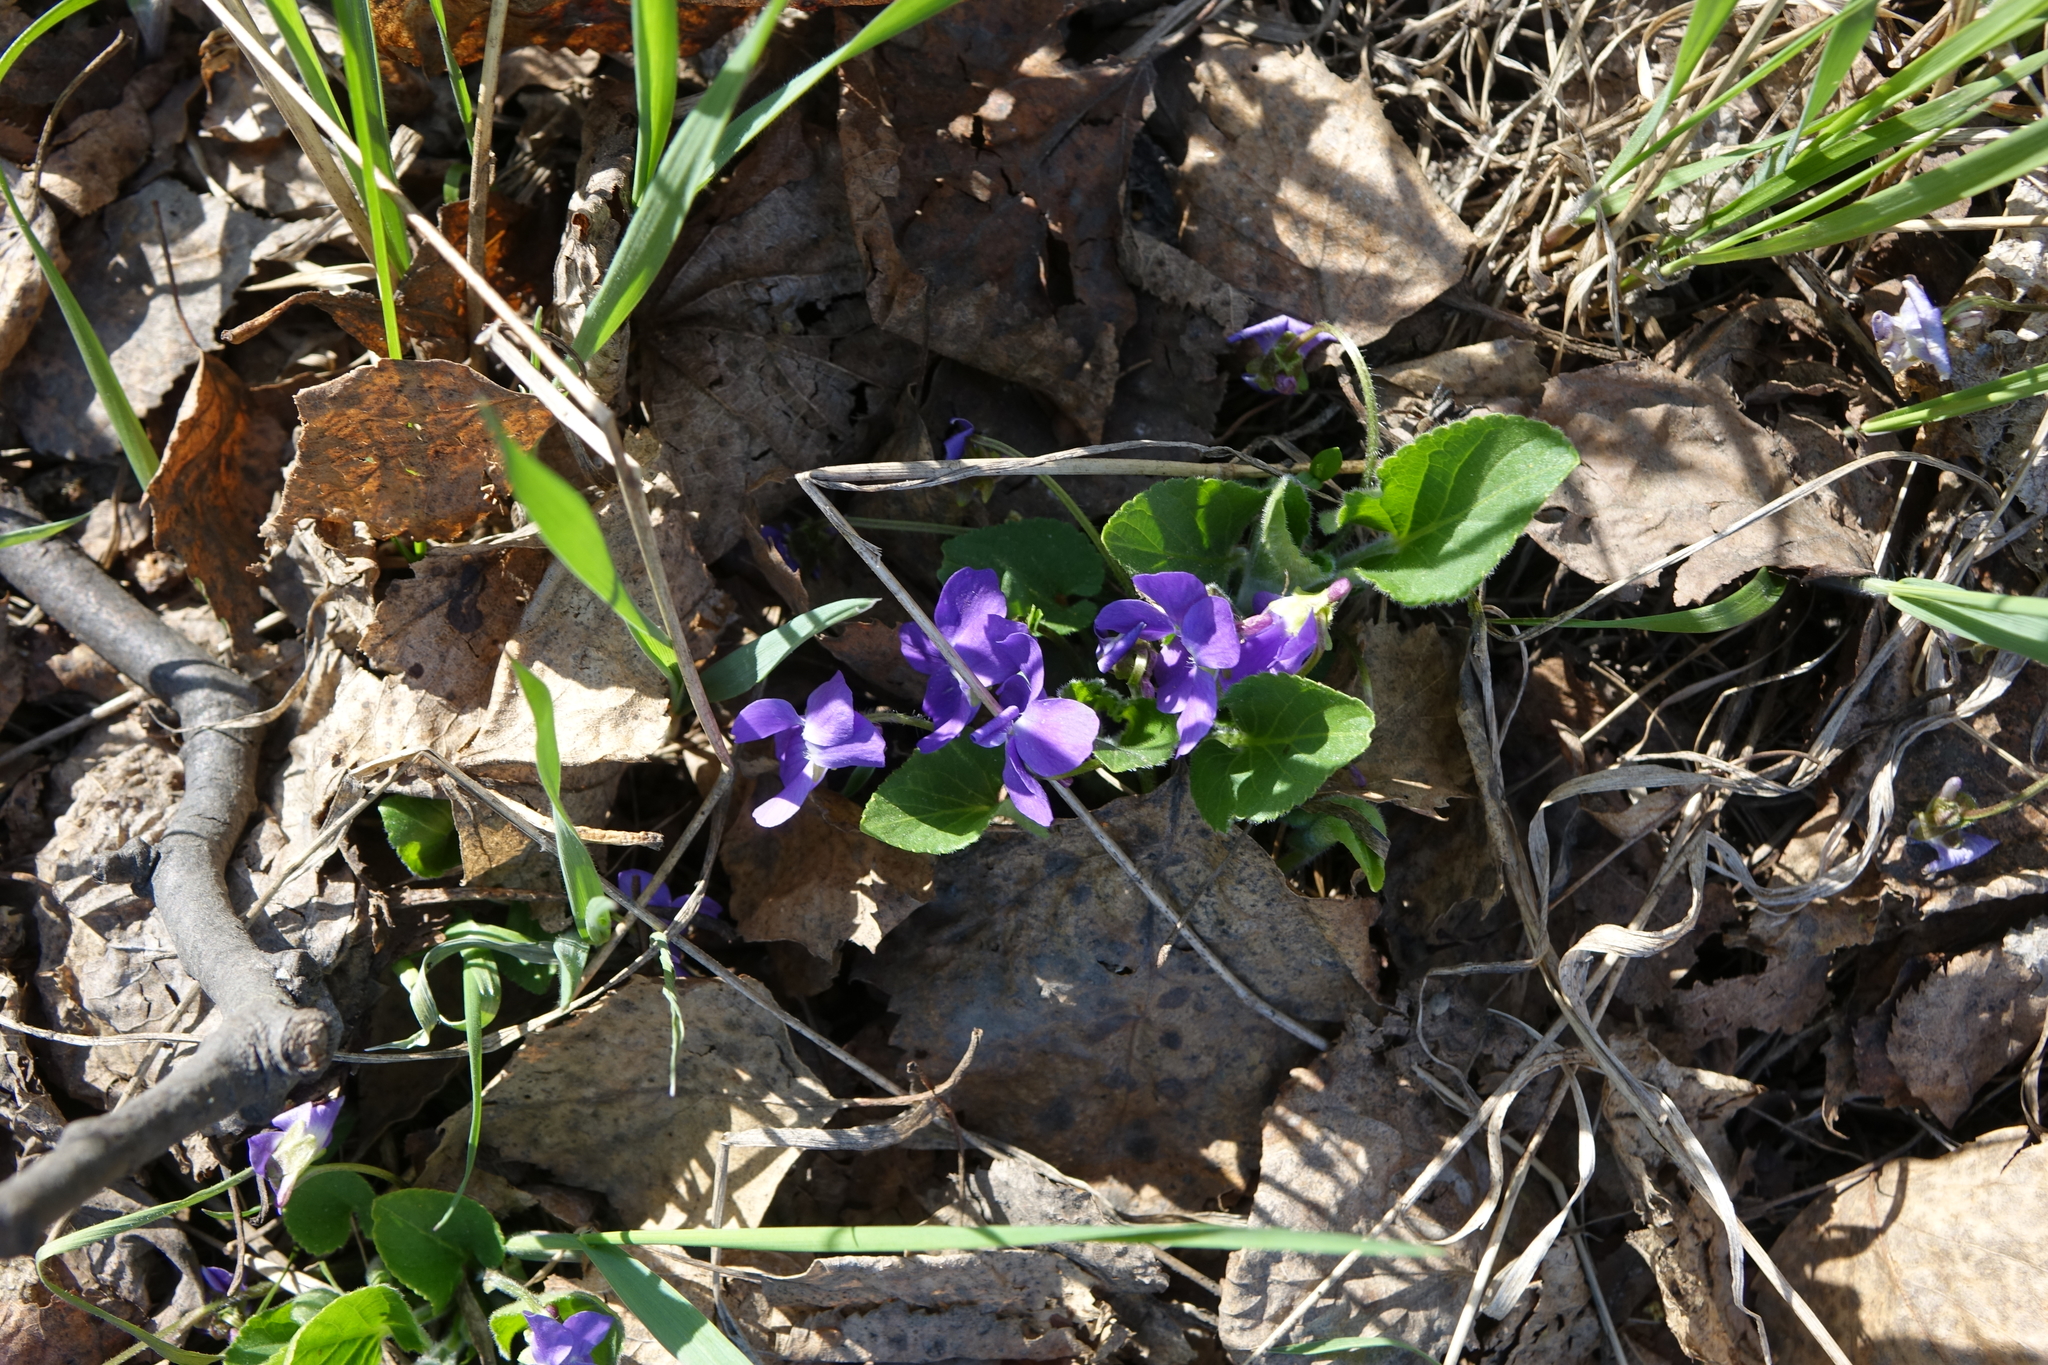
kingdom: Plantae
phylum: Tracheophyta
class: Magnoliopsida
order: Malpighiales
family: Violaceae
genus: Viola
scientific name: Viola hirta
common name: Hairy violet
